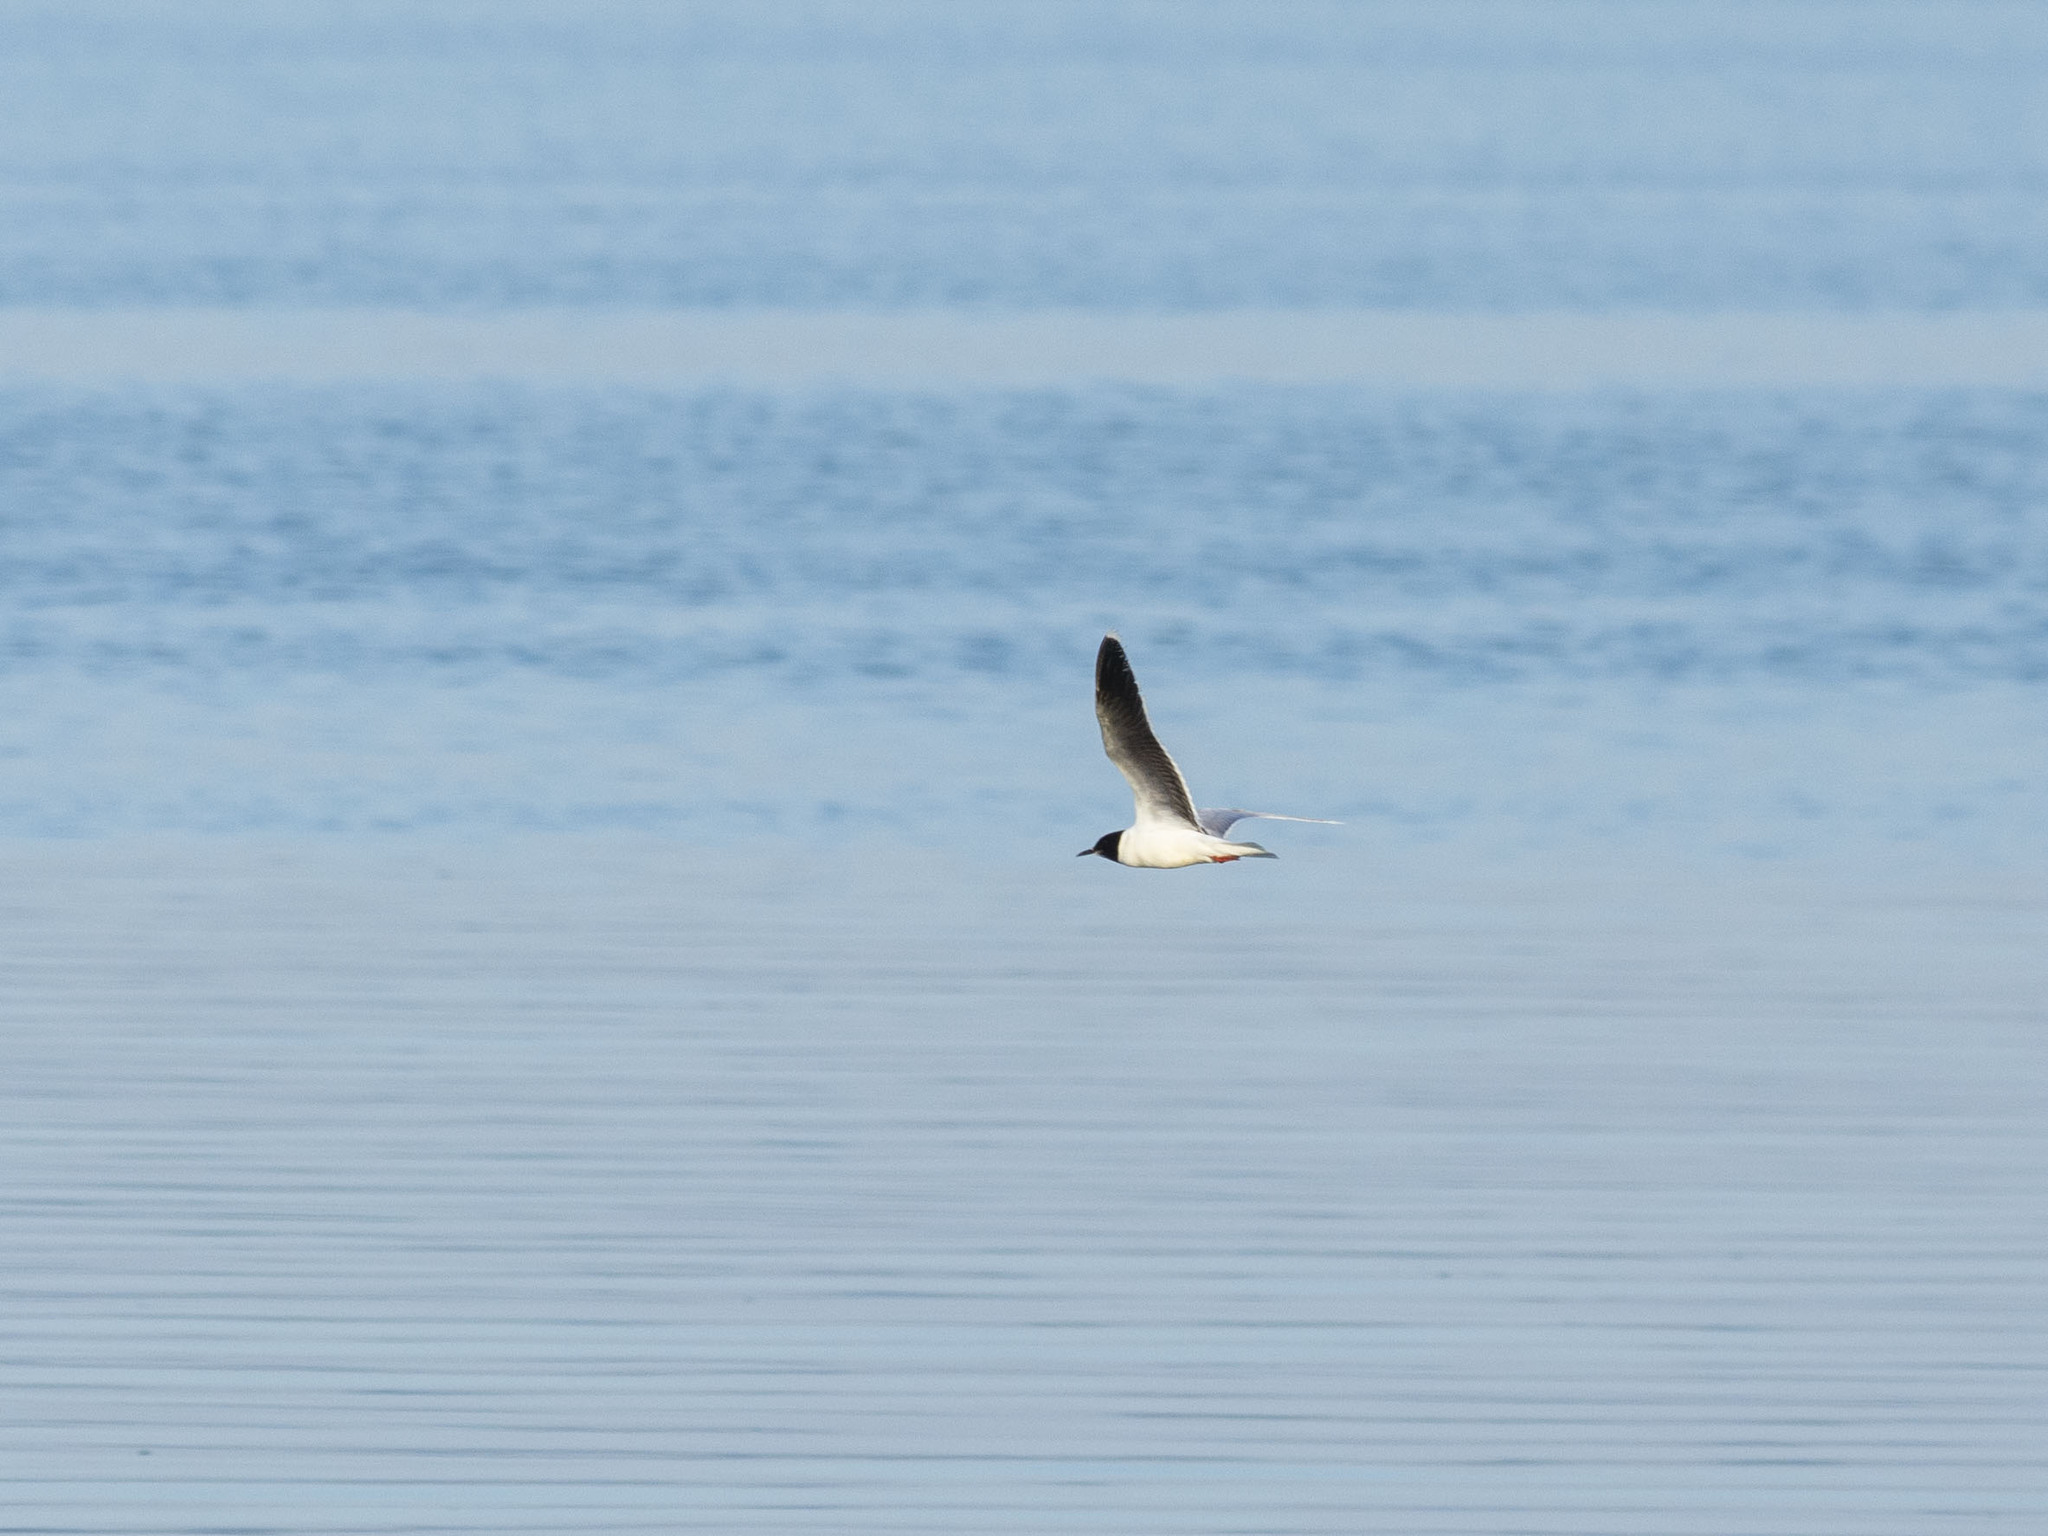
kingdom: Animalia
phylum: Chordata
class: Aves
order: Charadriiformes
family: Laridae
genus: Hydrocoloeus
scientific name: Hydrocoloeus minutus
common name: Little gull
